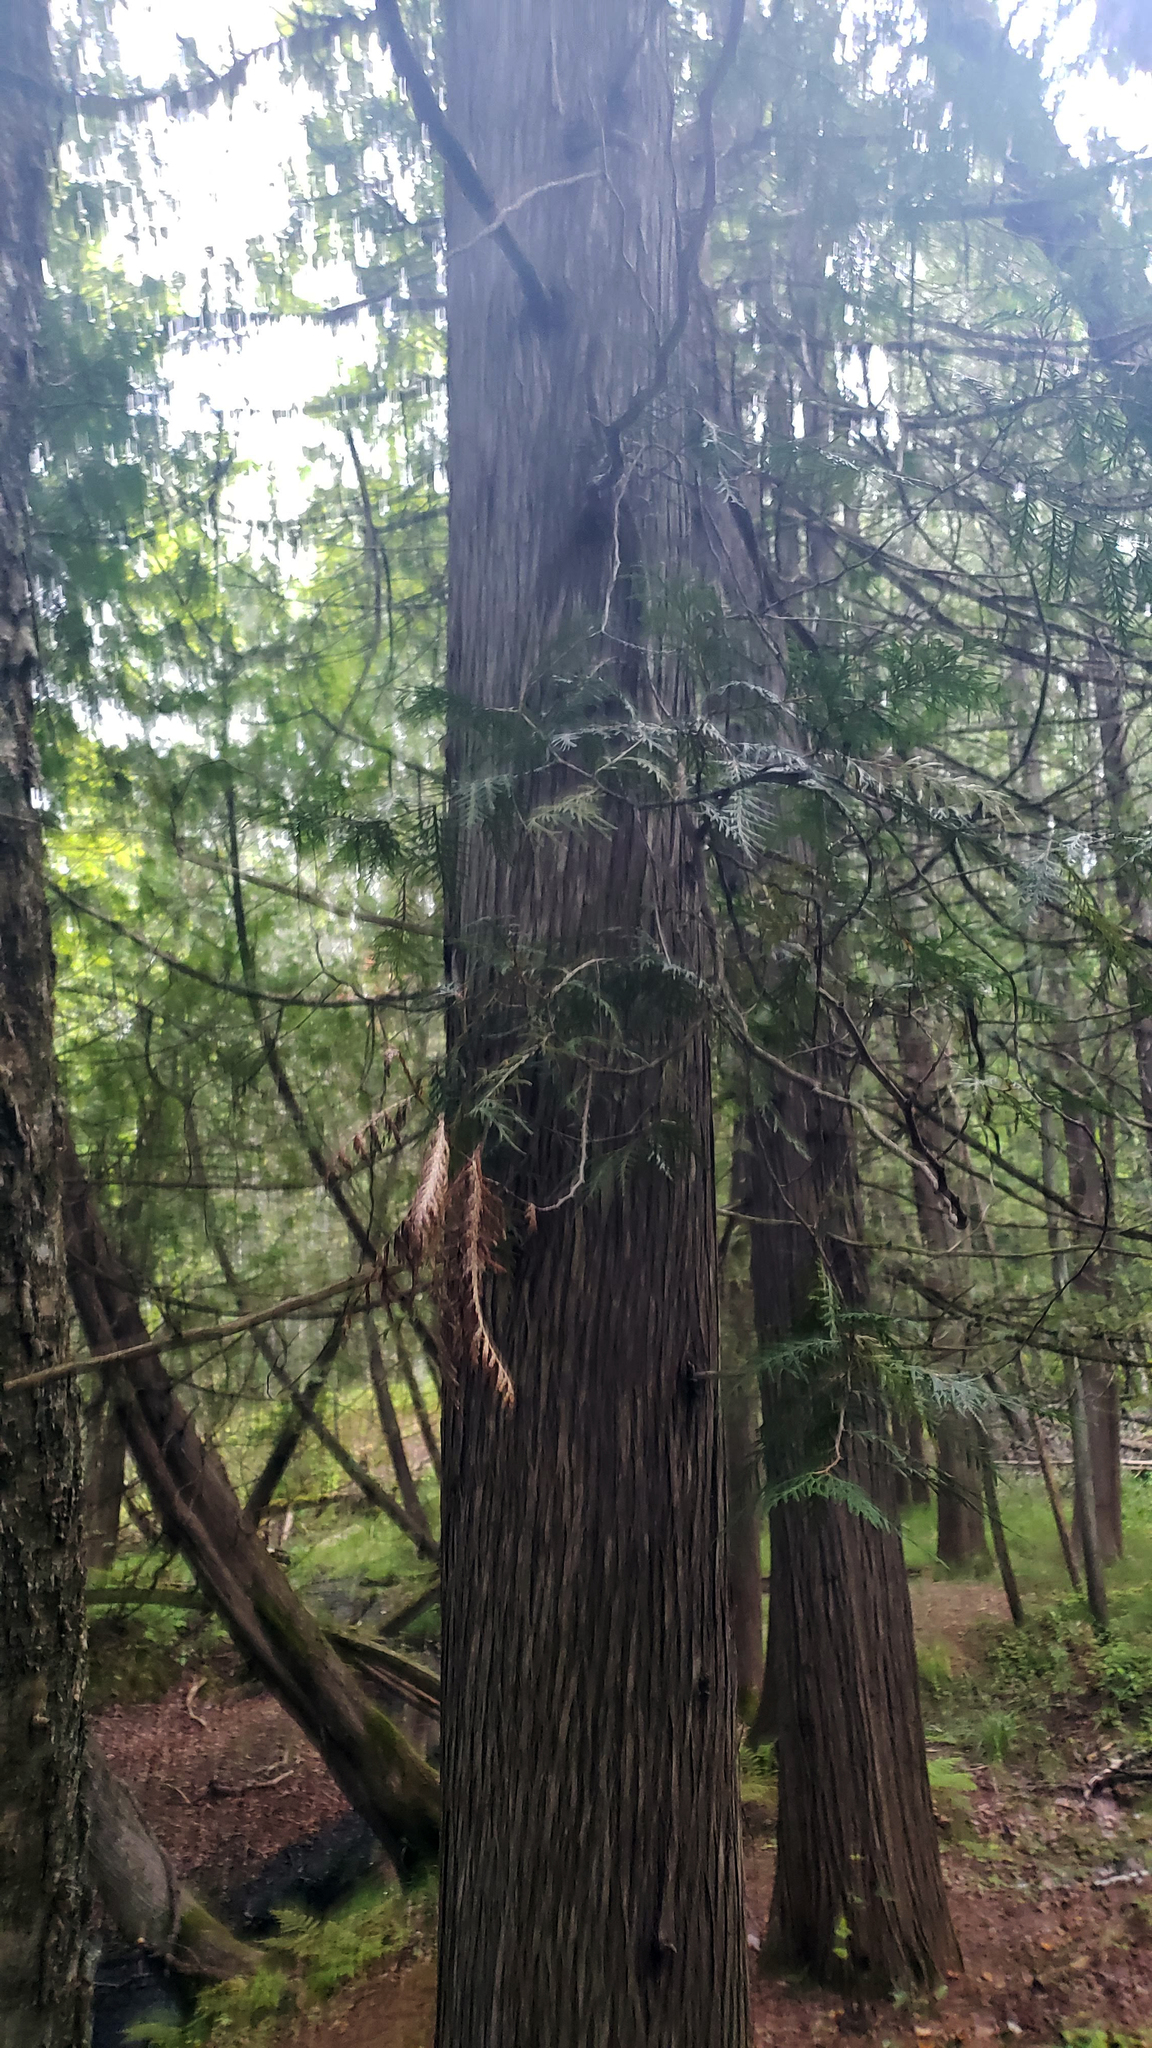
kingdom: Plantae
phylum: Tracheophyta
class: Pinopsida
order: Pinales
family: Cupressaceae
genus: Thuja
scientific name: Thuja occidentalis
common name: Northern white-cedar
